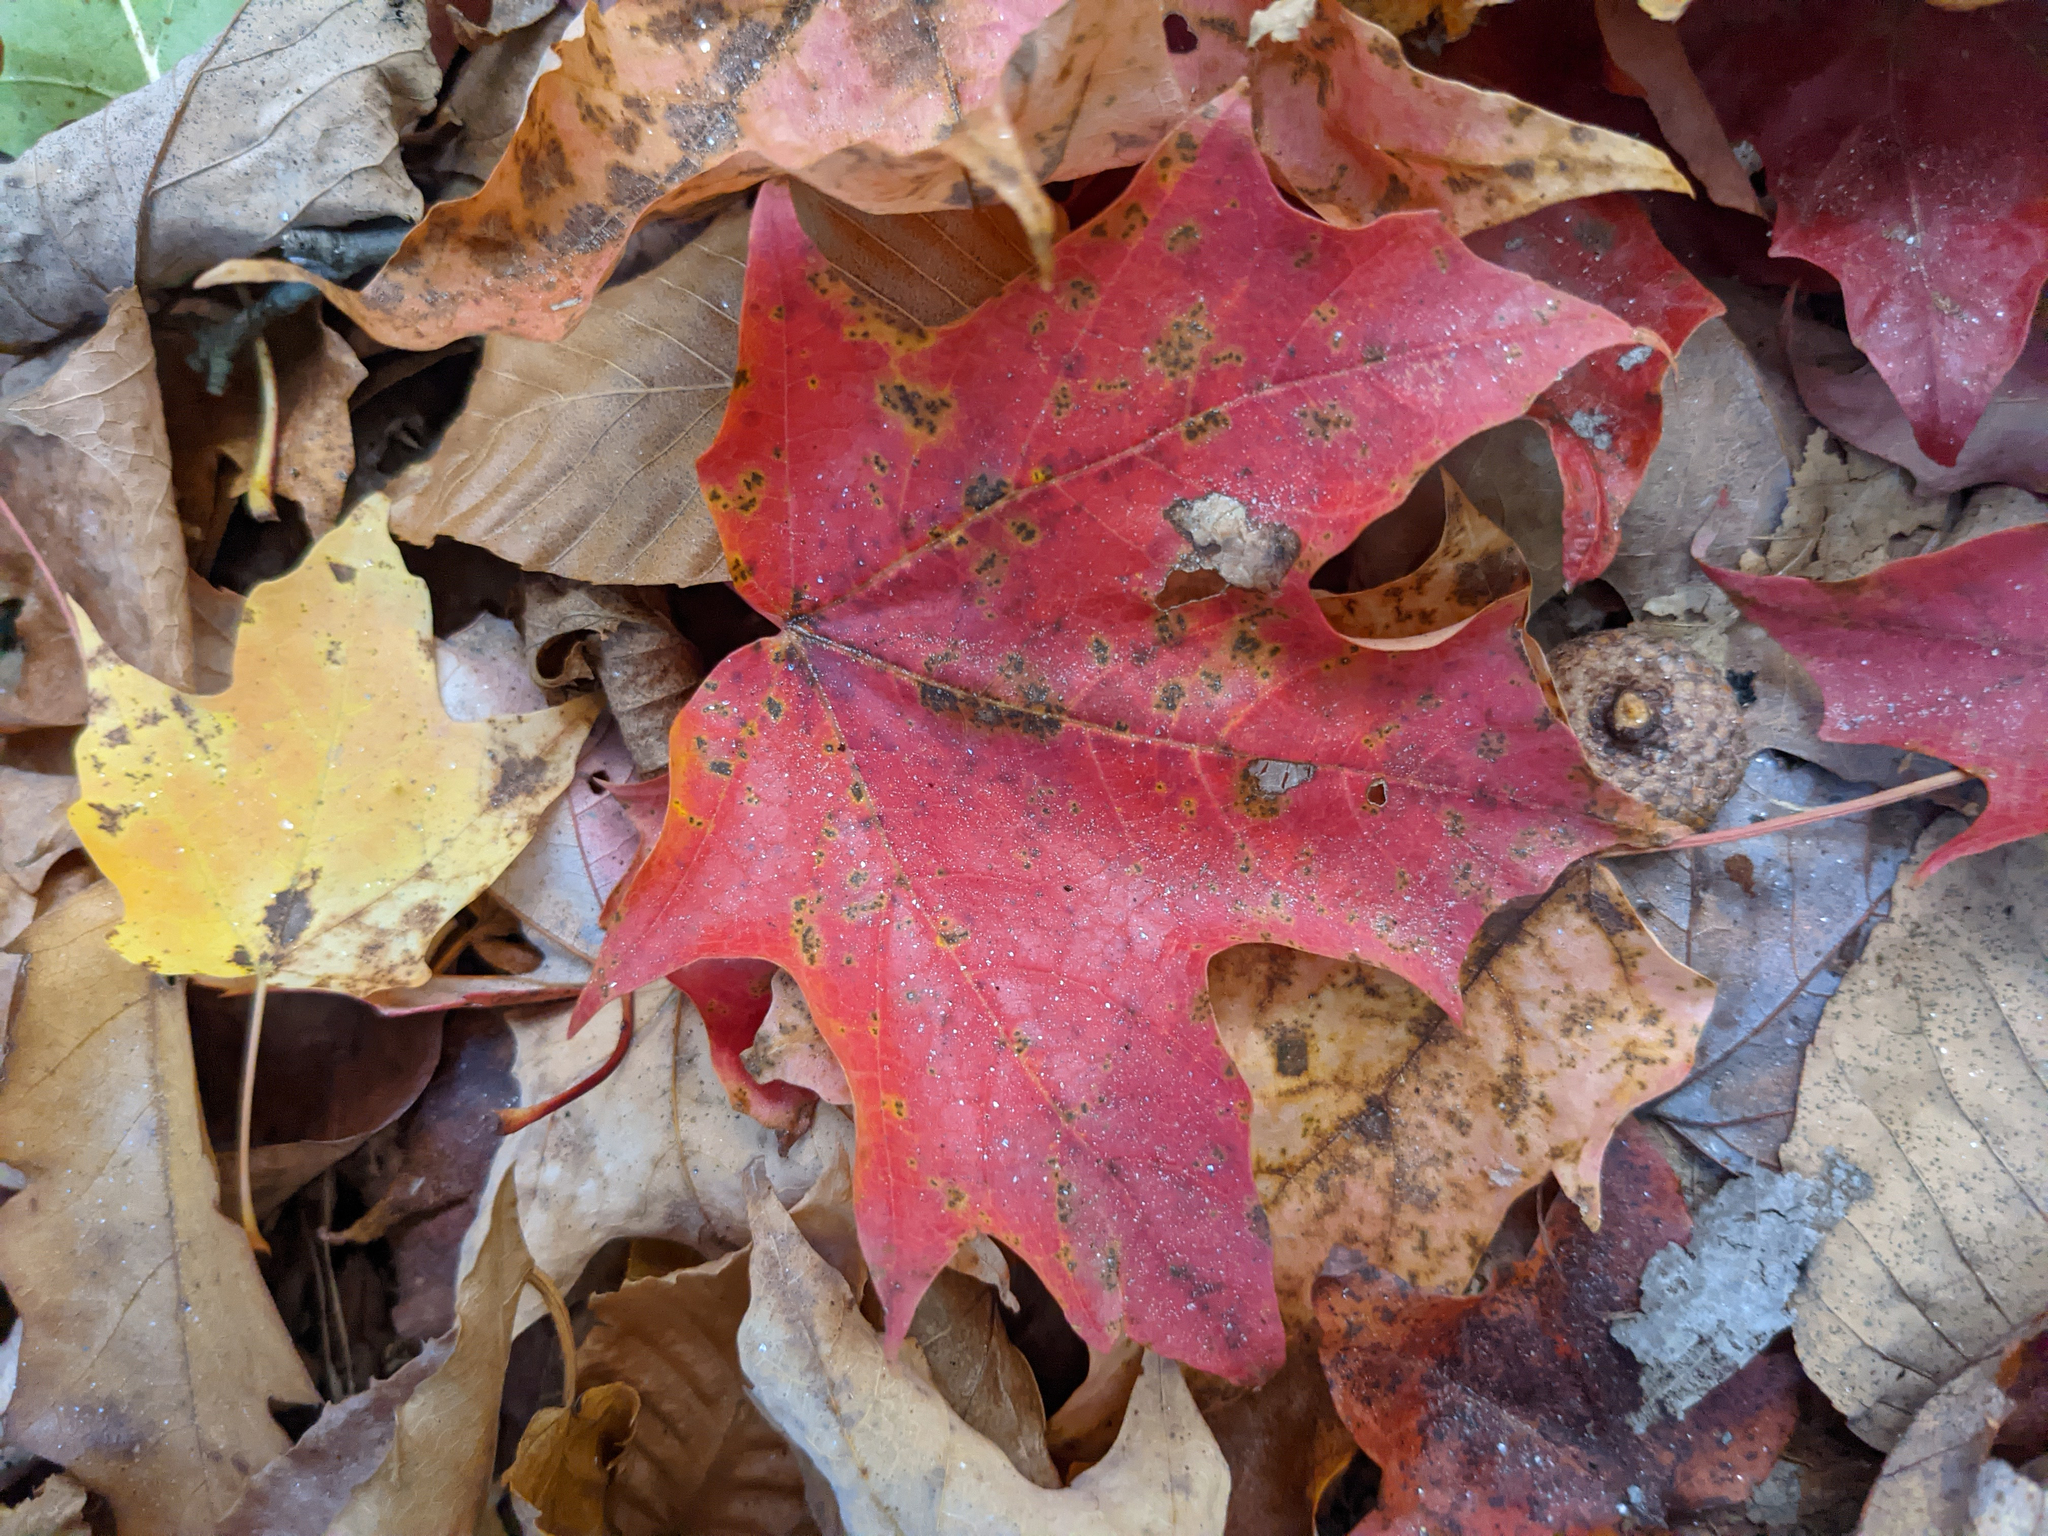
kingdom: Plantae
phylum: Tracheophyta
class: Magnoliopsida
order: Sapindales
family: Sapindaceae
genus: Acer
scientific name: Acer saccharum
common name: Sugar maple
